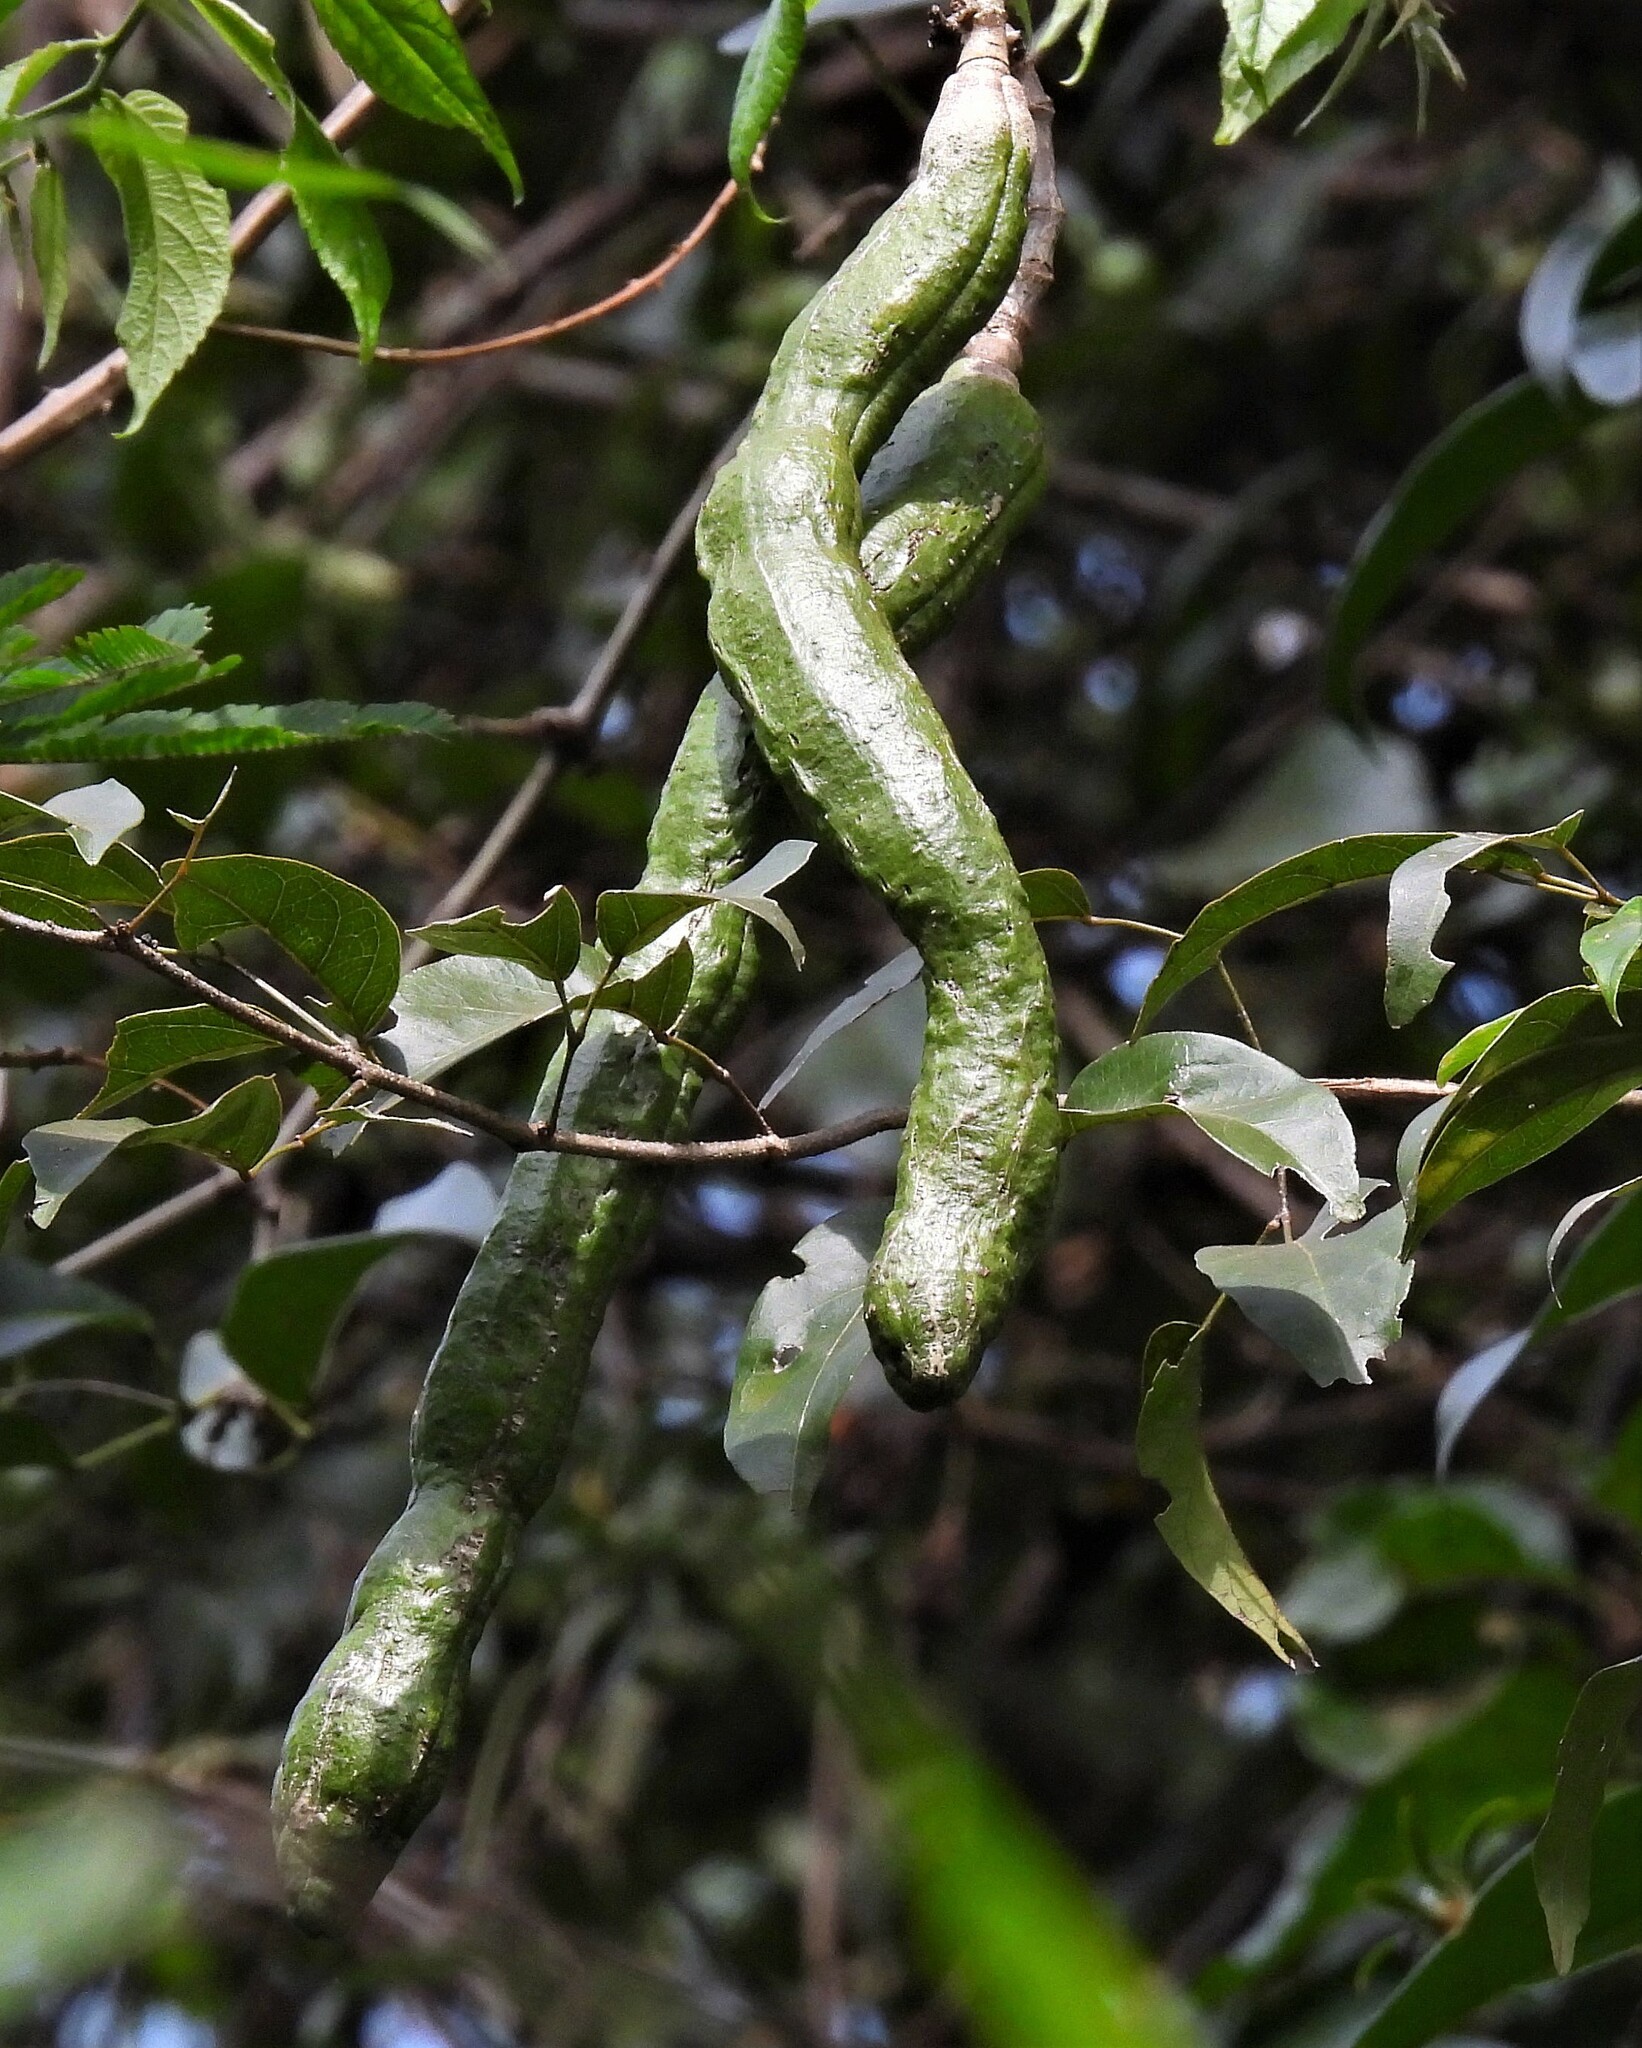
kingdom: Plantae
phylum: Tracheophyta
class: Magnoliopsida
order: Lamiales
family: Bignoniaceae
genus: Mansoa
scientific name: Mansoa difficilis
